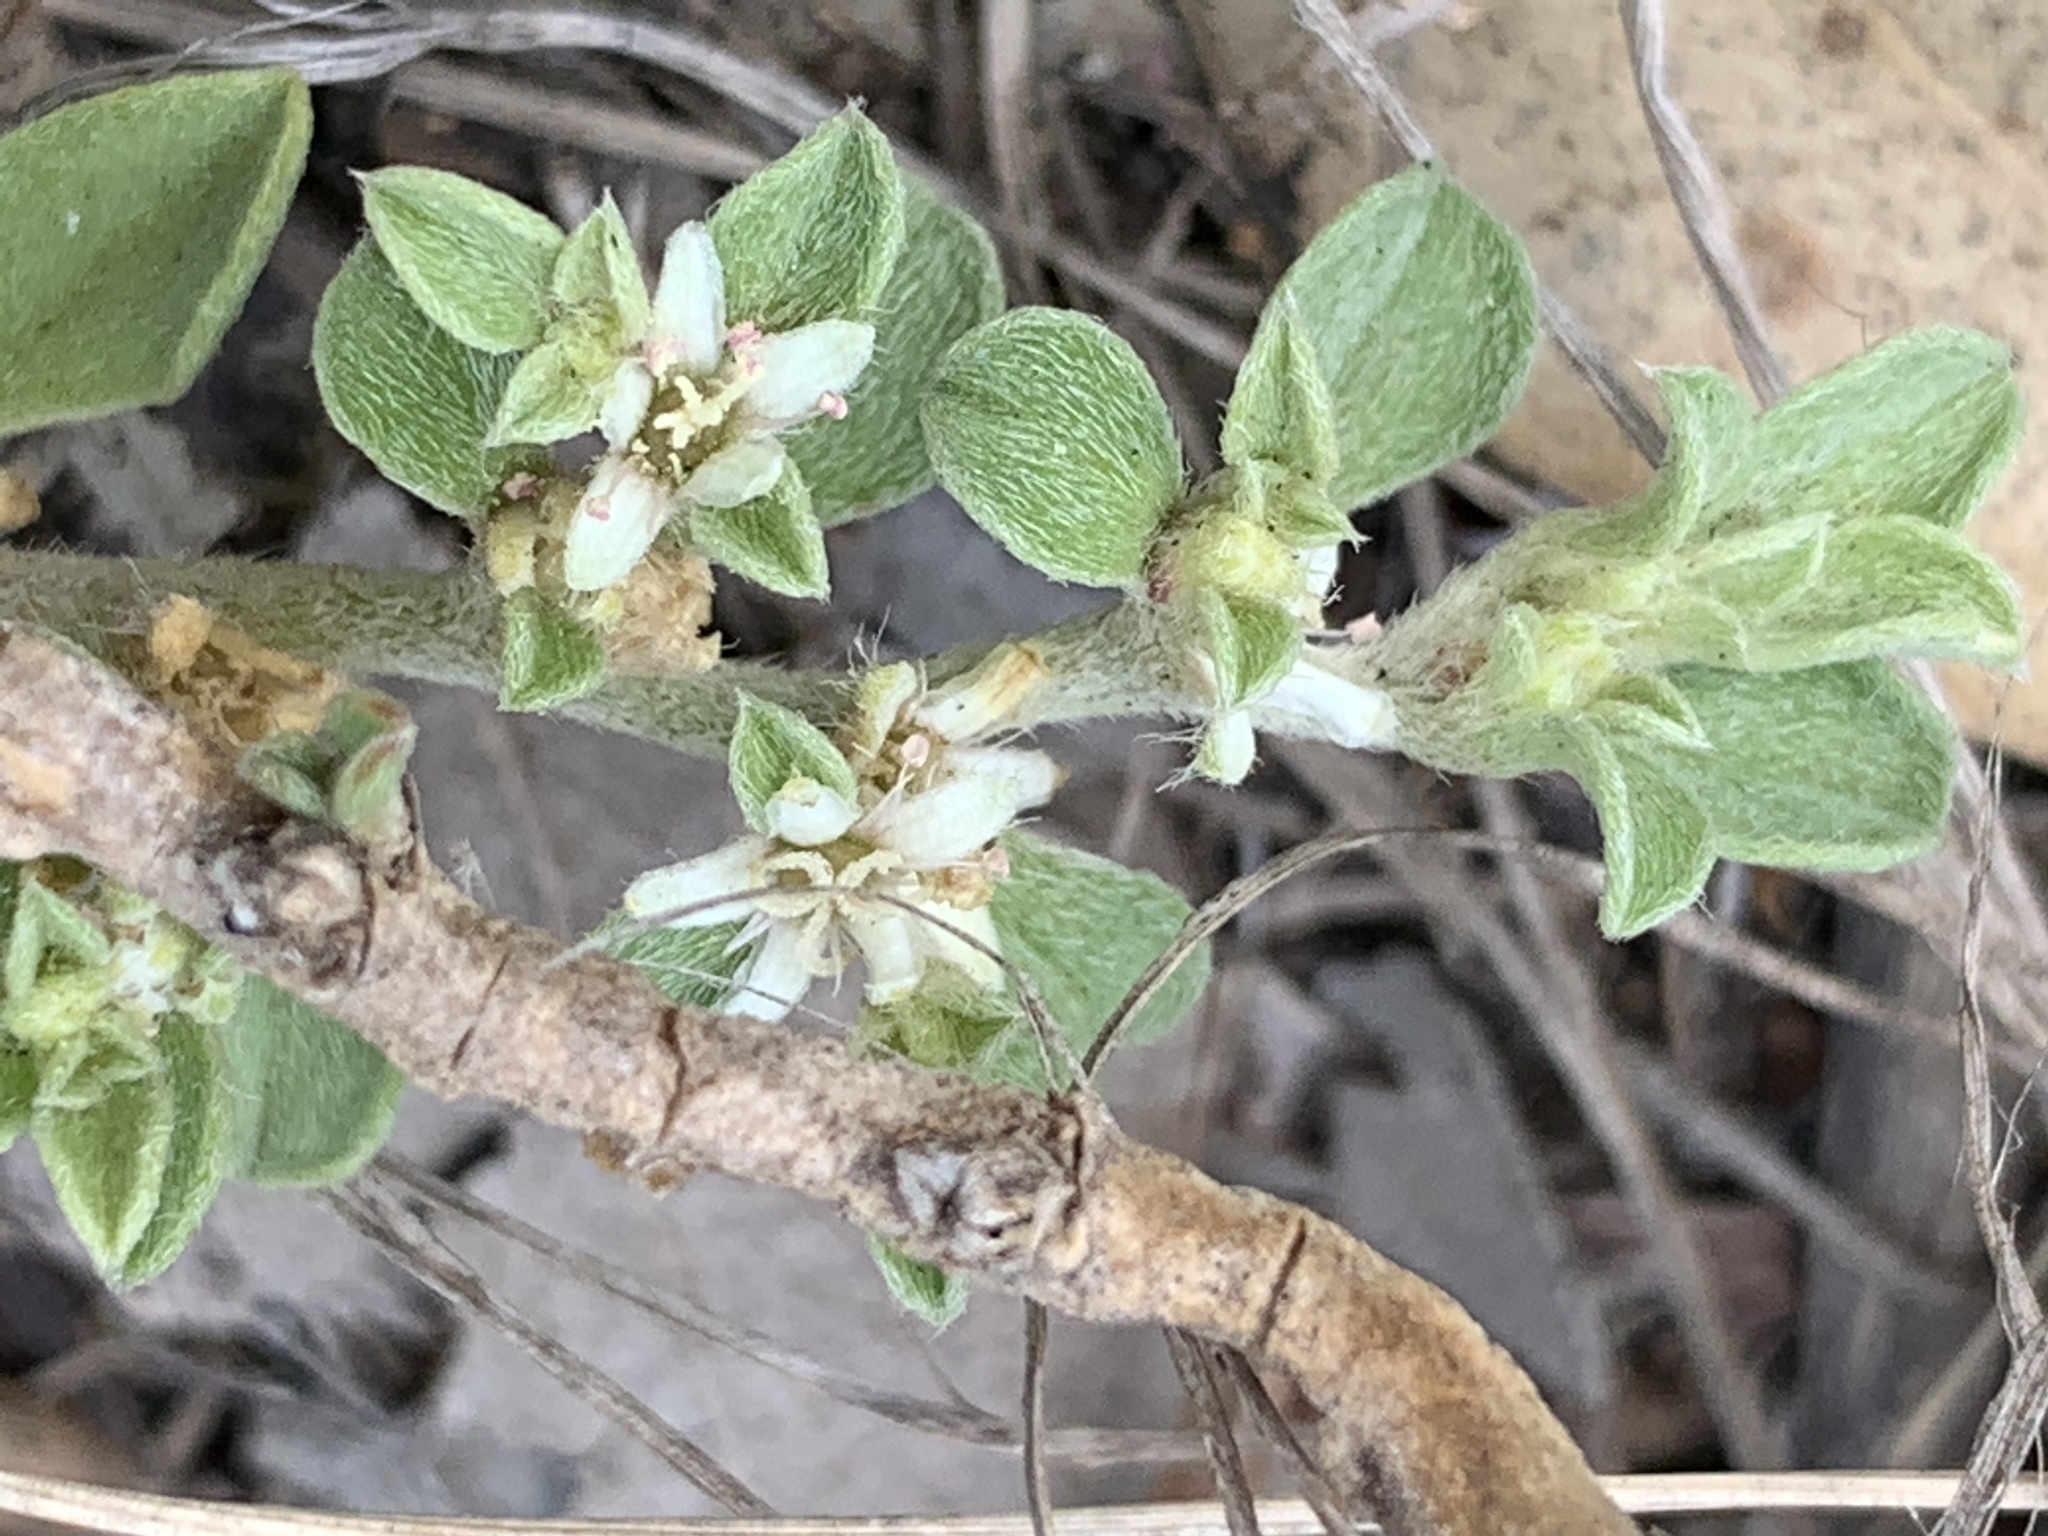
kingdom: Plantae
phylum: Tracheophyta
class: Magnoliopsida
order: Caryophyllales
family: Aizoaceae
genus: Aizoon
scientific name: Aizoon pubescens
